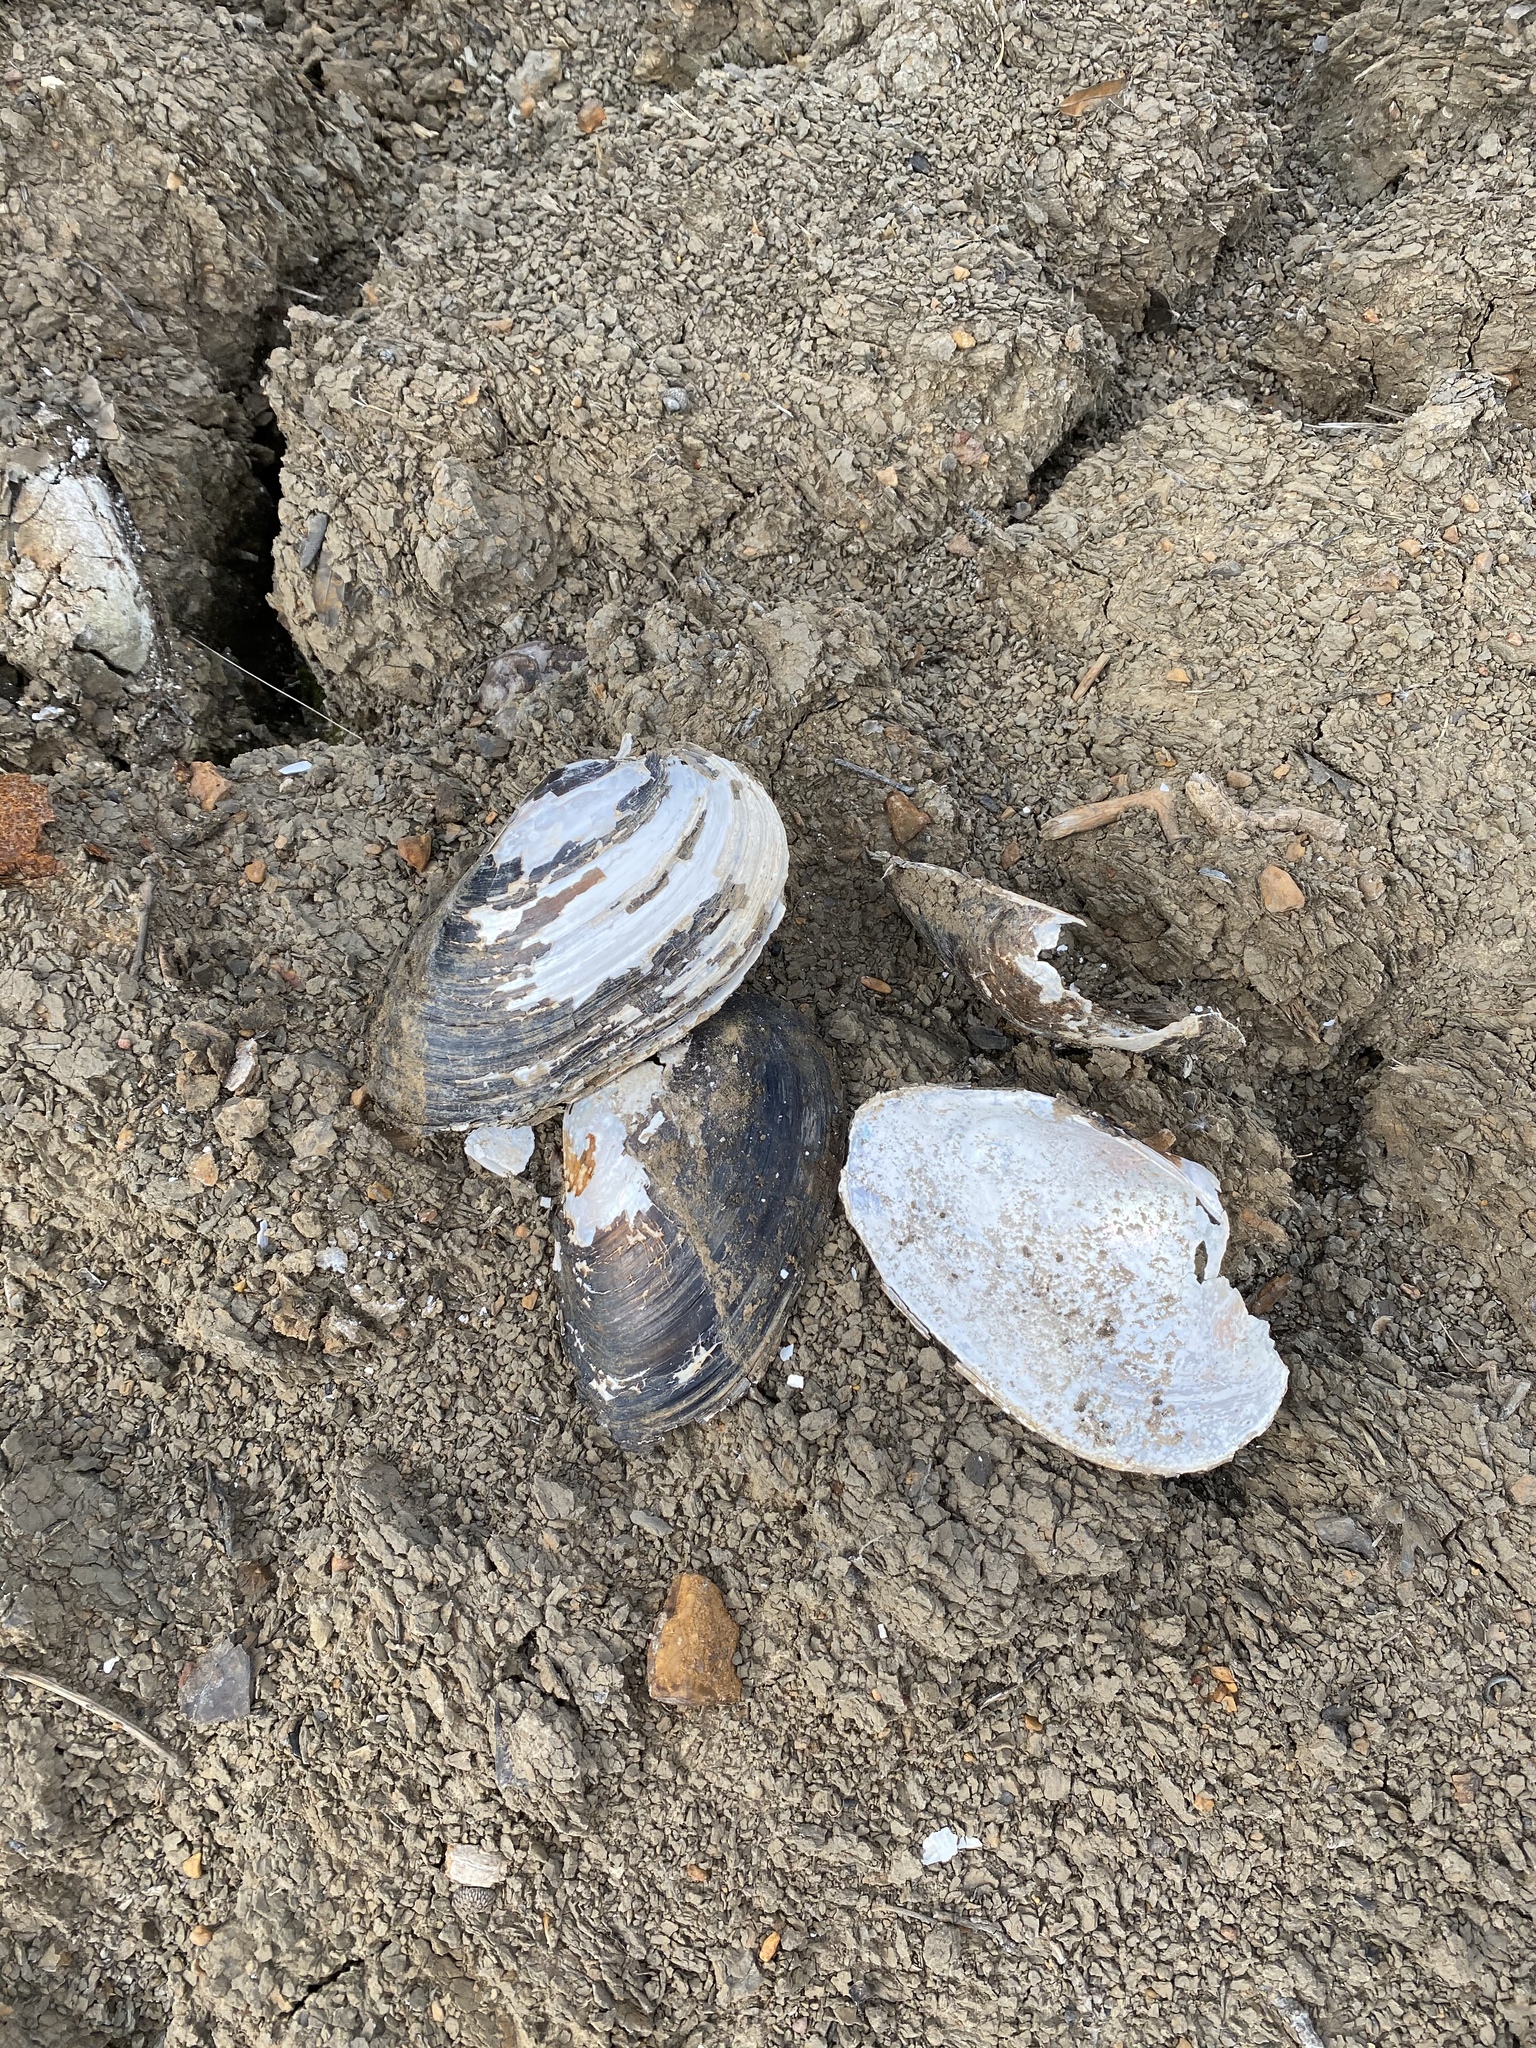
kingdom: Animalia
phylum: Mollusca
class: Bivalvia
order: Unionida
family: Unionidae
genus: Pyganodon
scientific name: Pyganodon grandis
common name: Giant floater
